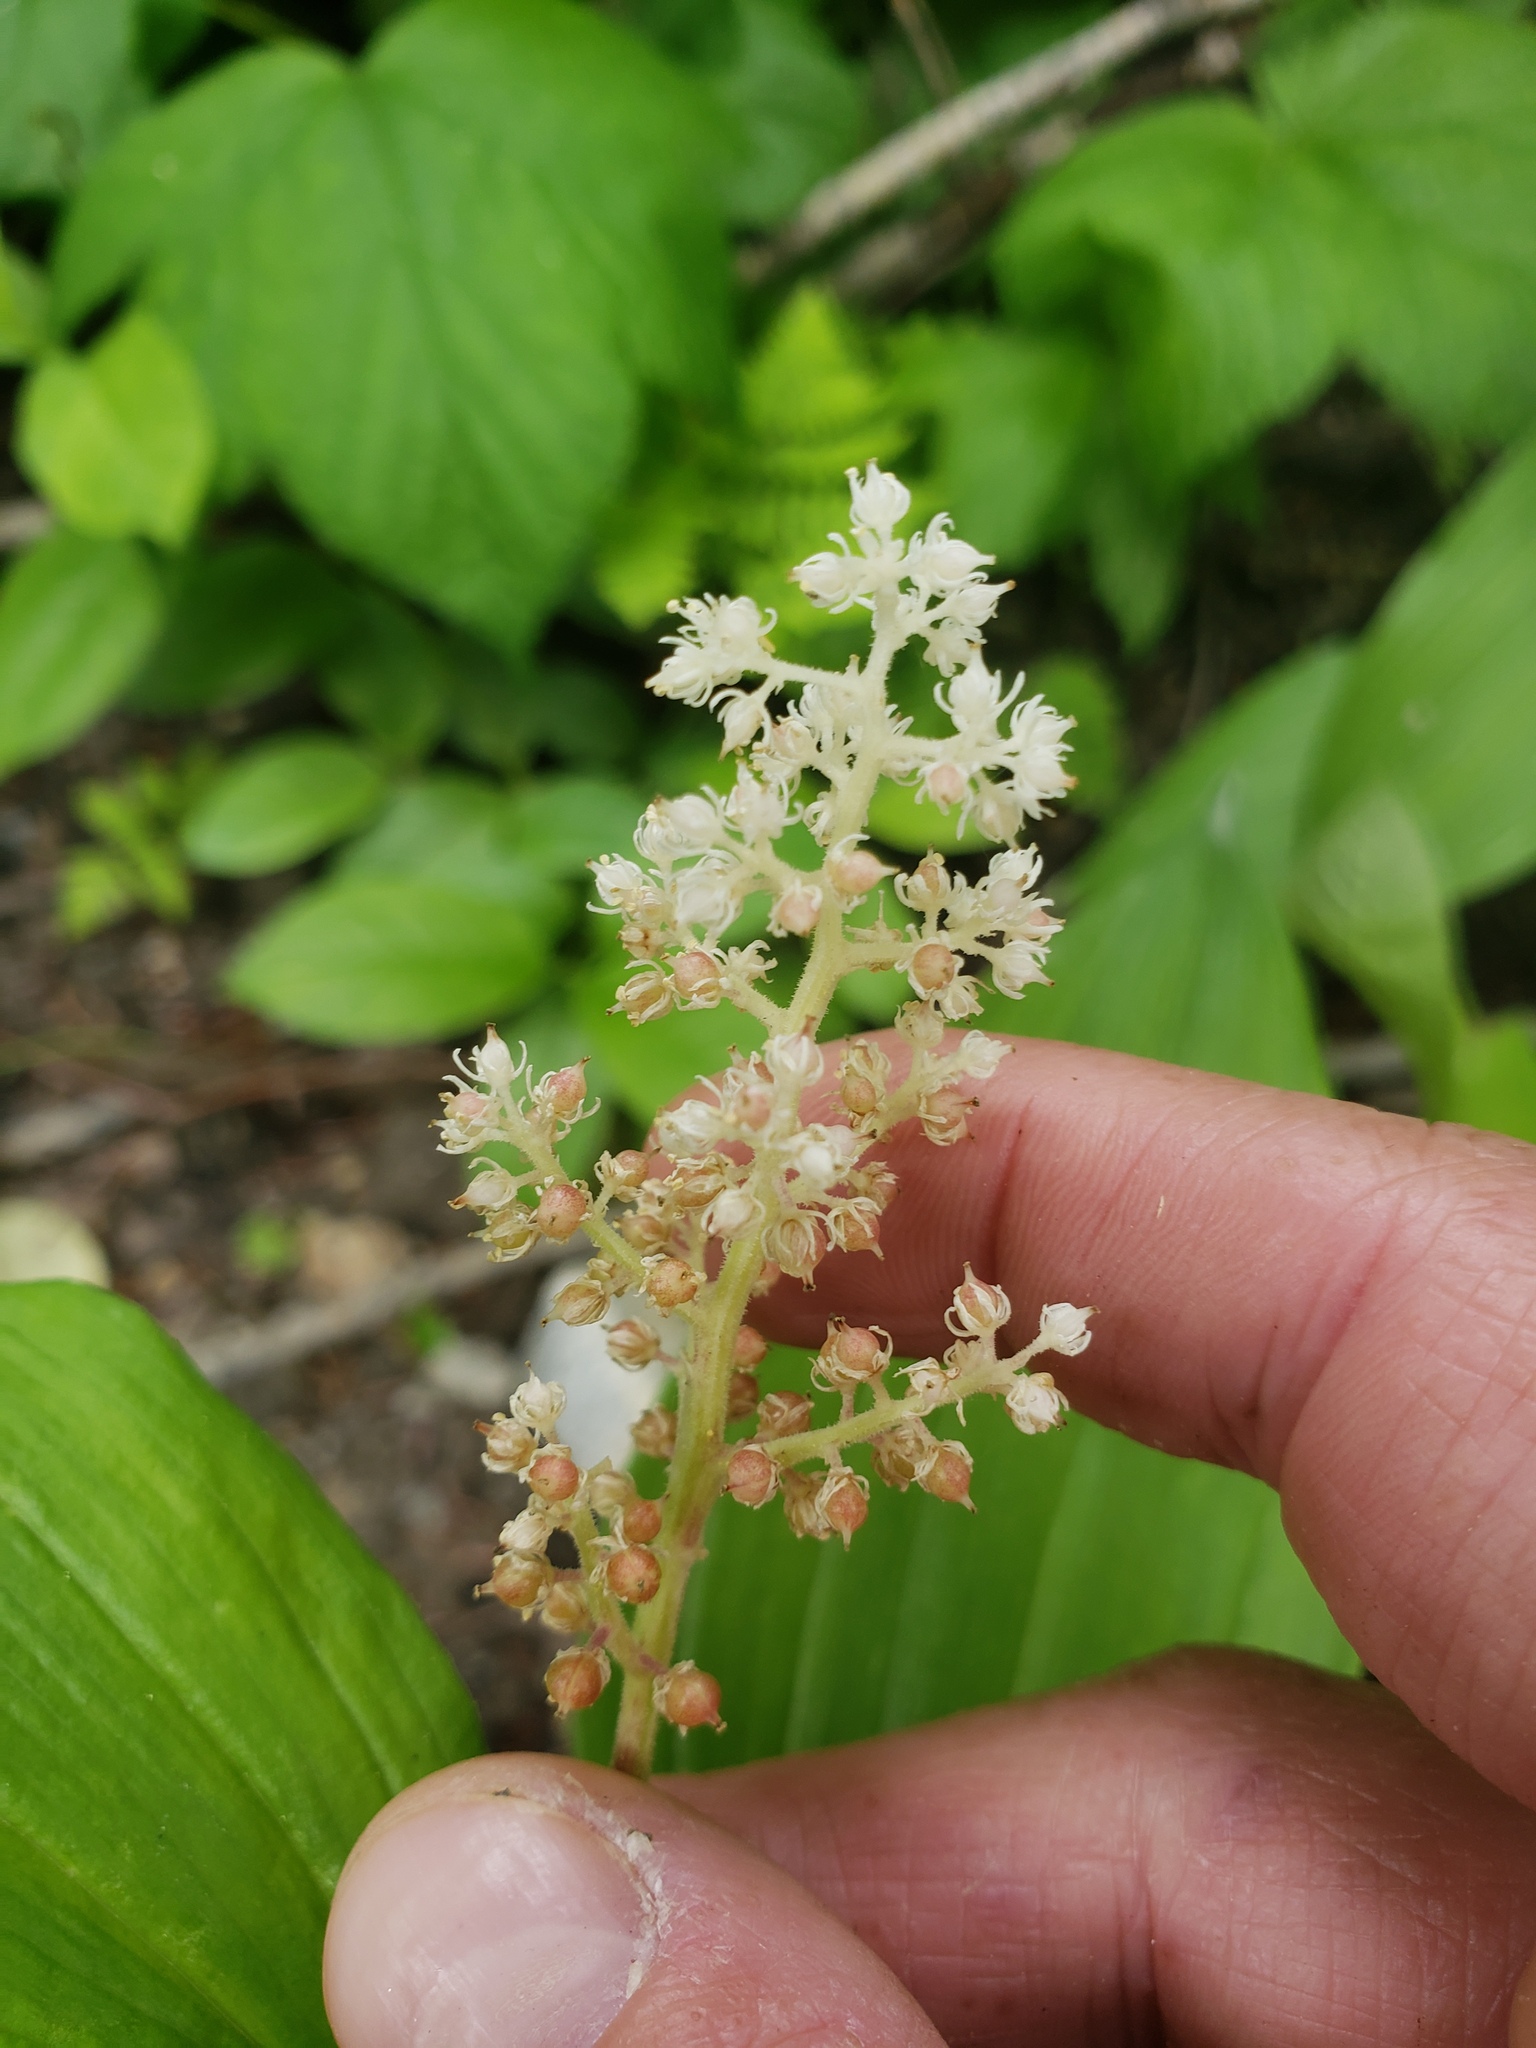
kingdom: Plantae
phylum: Tracheophyta
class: Liliopsida
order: Asparagales
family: Asparagaceae
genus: Maianthemum
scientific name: Maianthemum racemosum
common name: False spikenard
